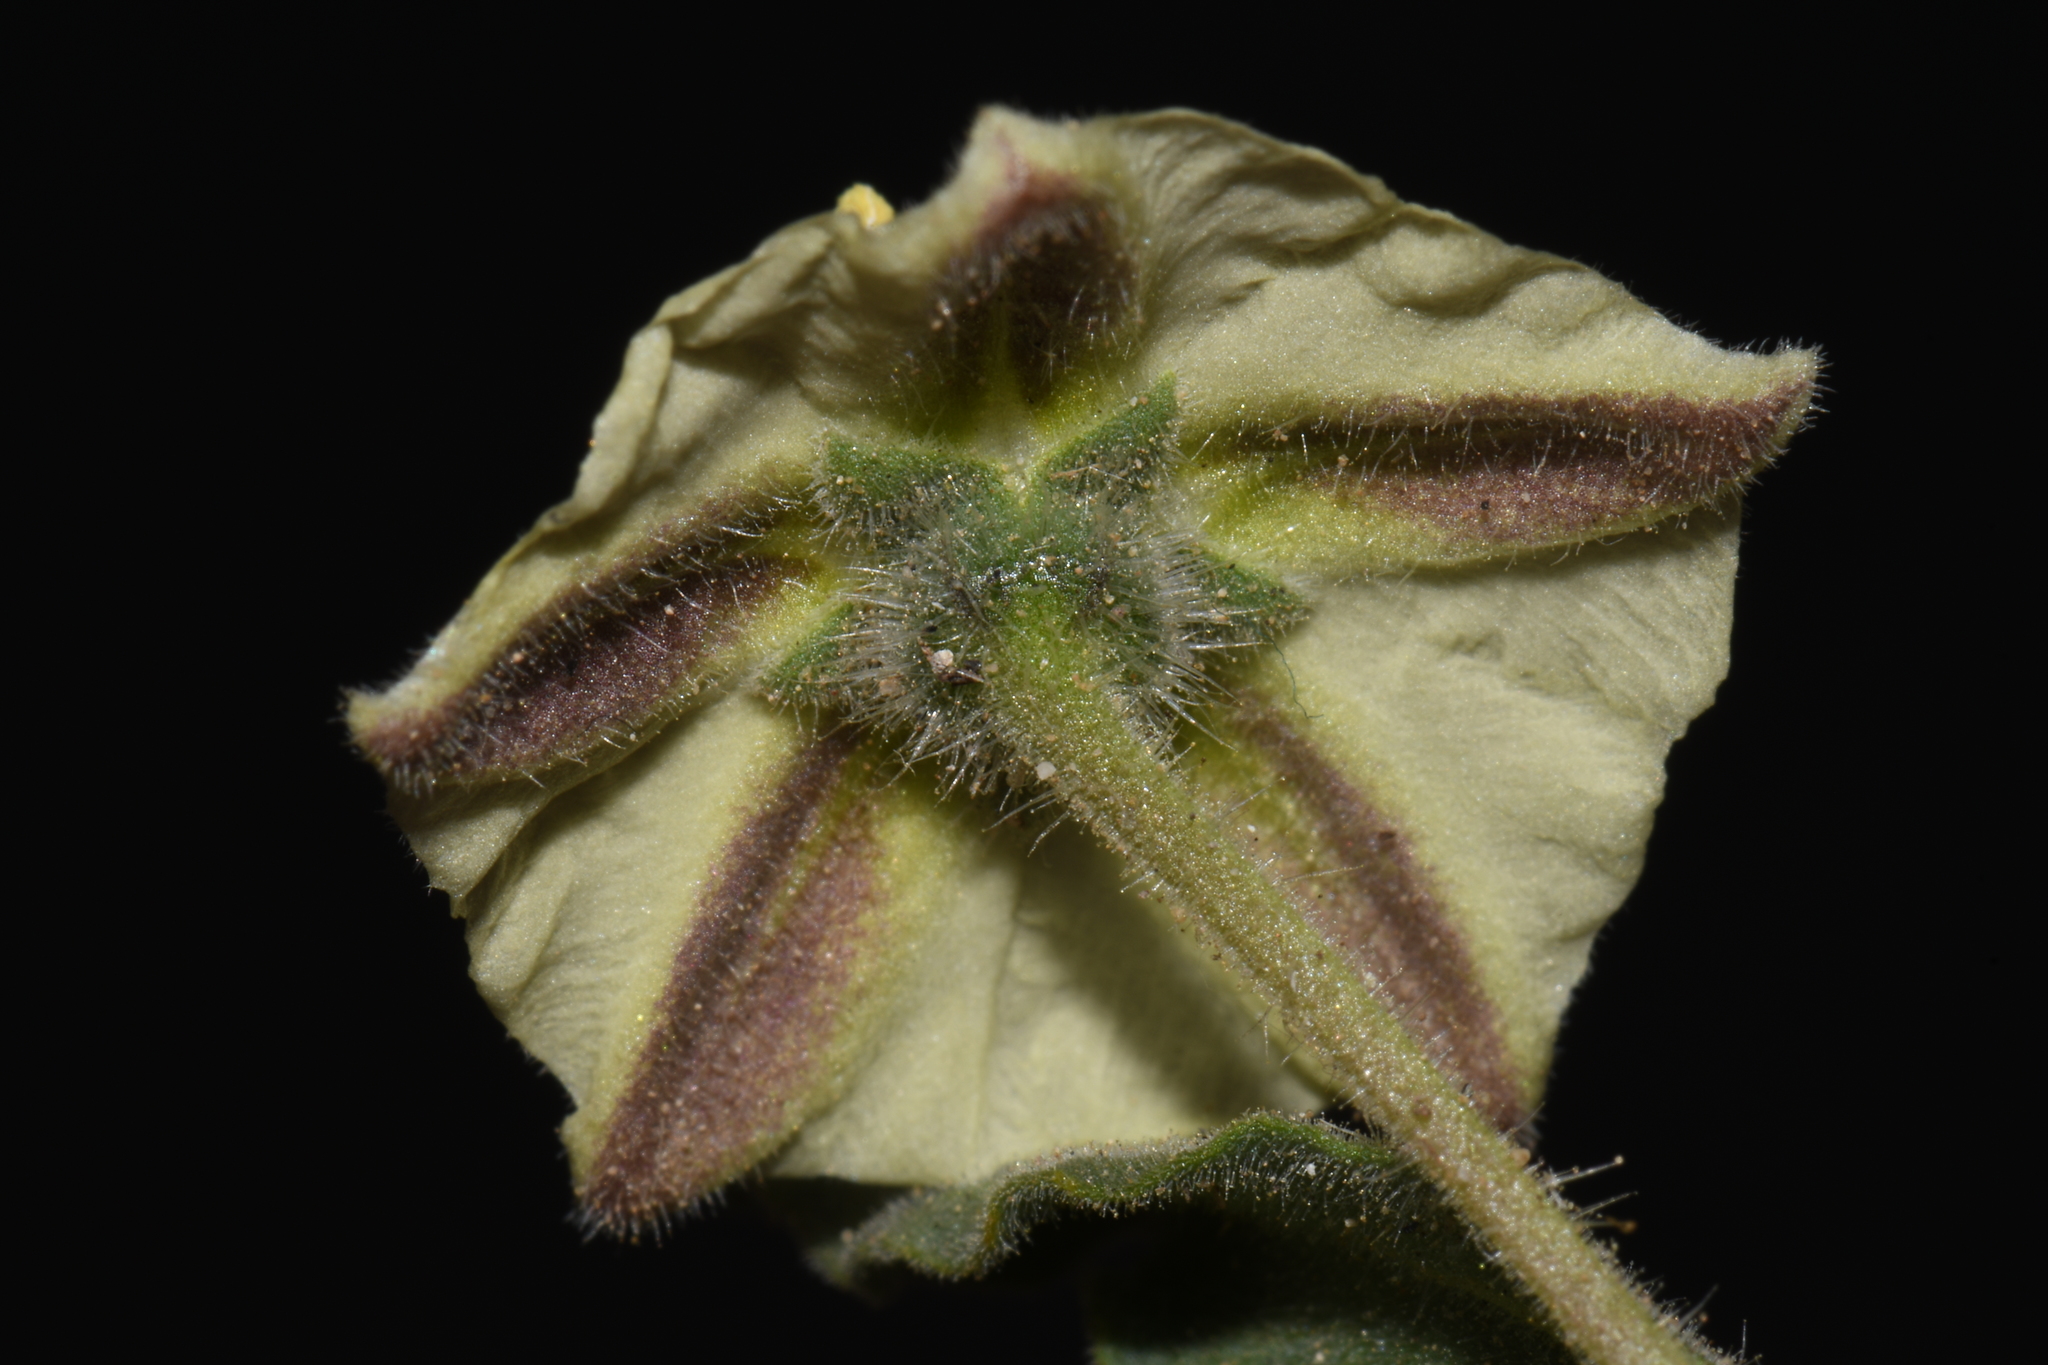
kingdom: Plantae
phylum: Tracheophyta
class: Magnoliopsida
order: Solanales
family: Solanaceae
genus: Chamaesaracha
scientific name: Chamaesaracha sordida
